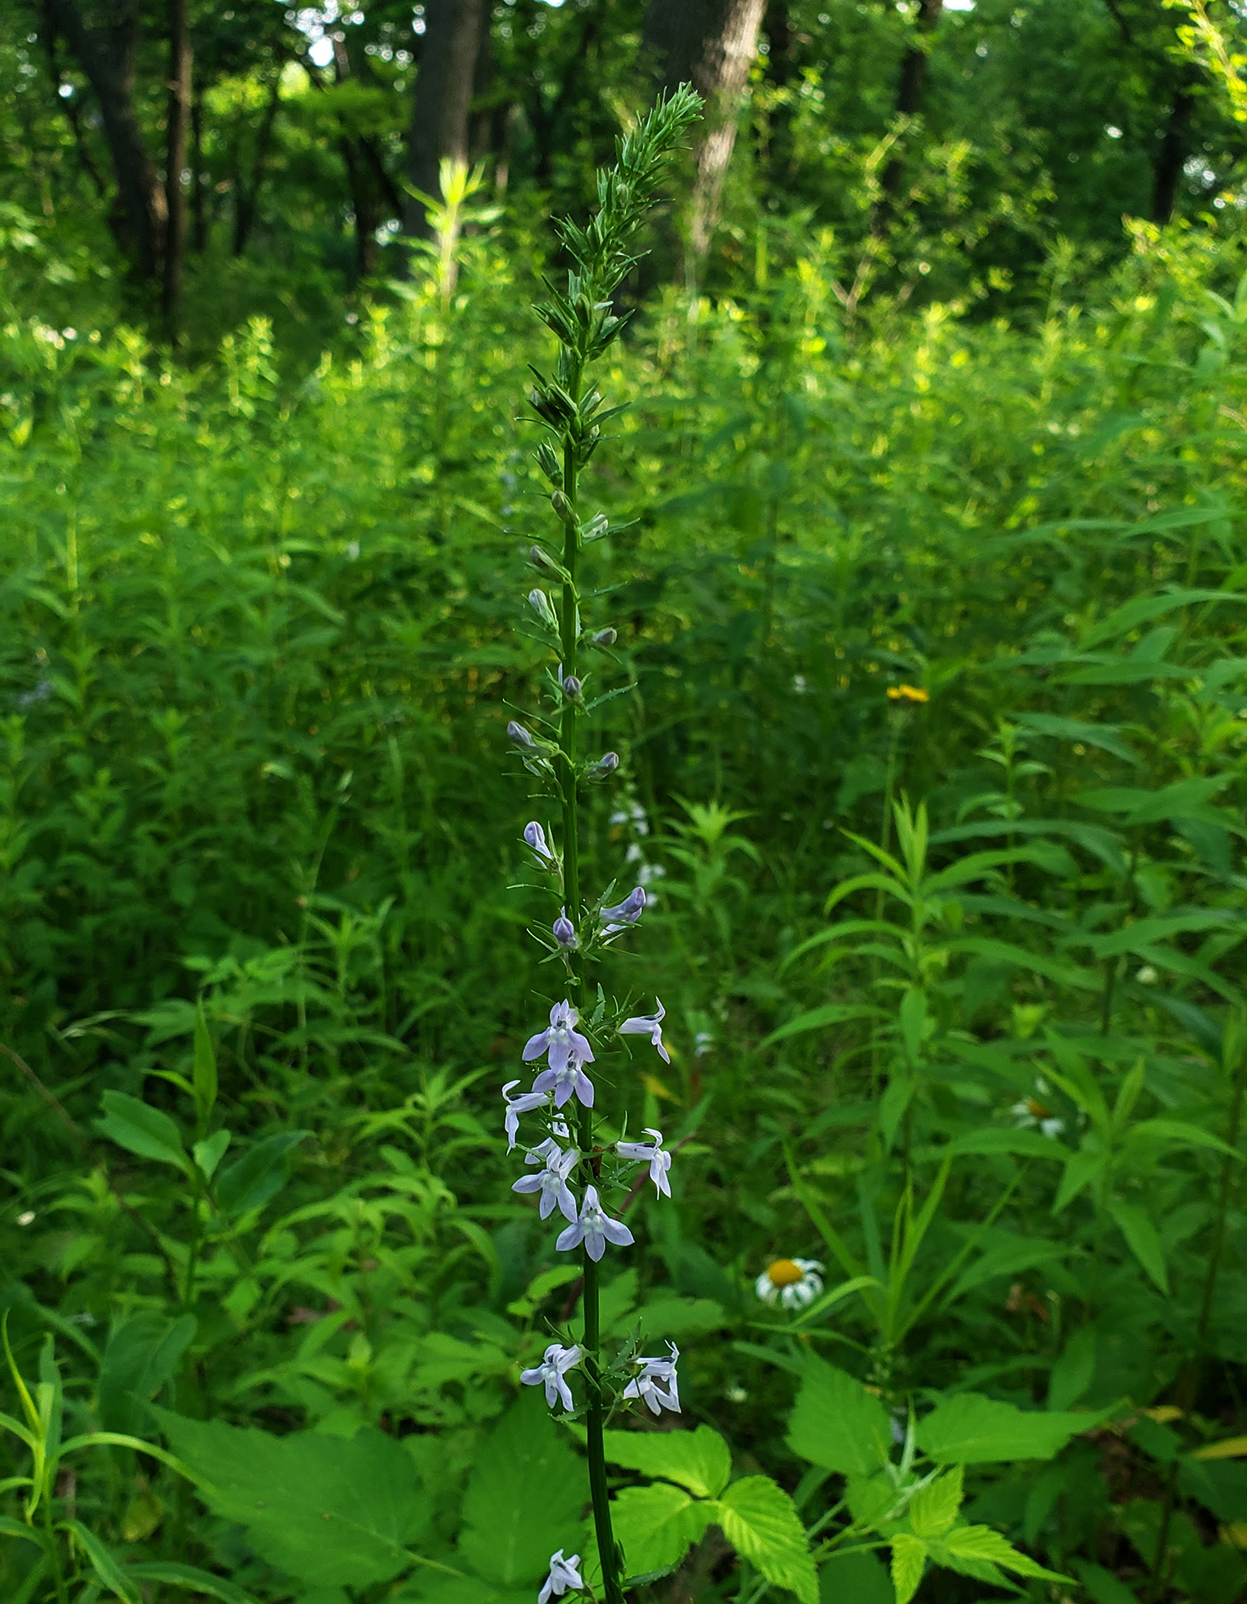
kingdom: Plantae
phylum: Tracheophyta
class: Magnoliopsida
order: Asterales
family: Campanulaceae
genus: Lobelia
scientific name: Lobelia spicata
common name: Pale-spike lobelia
